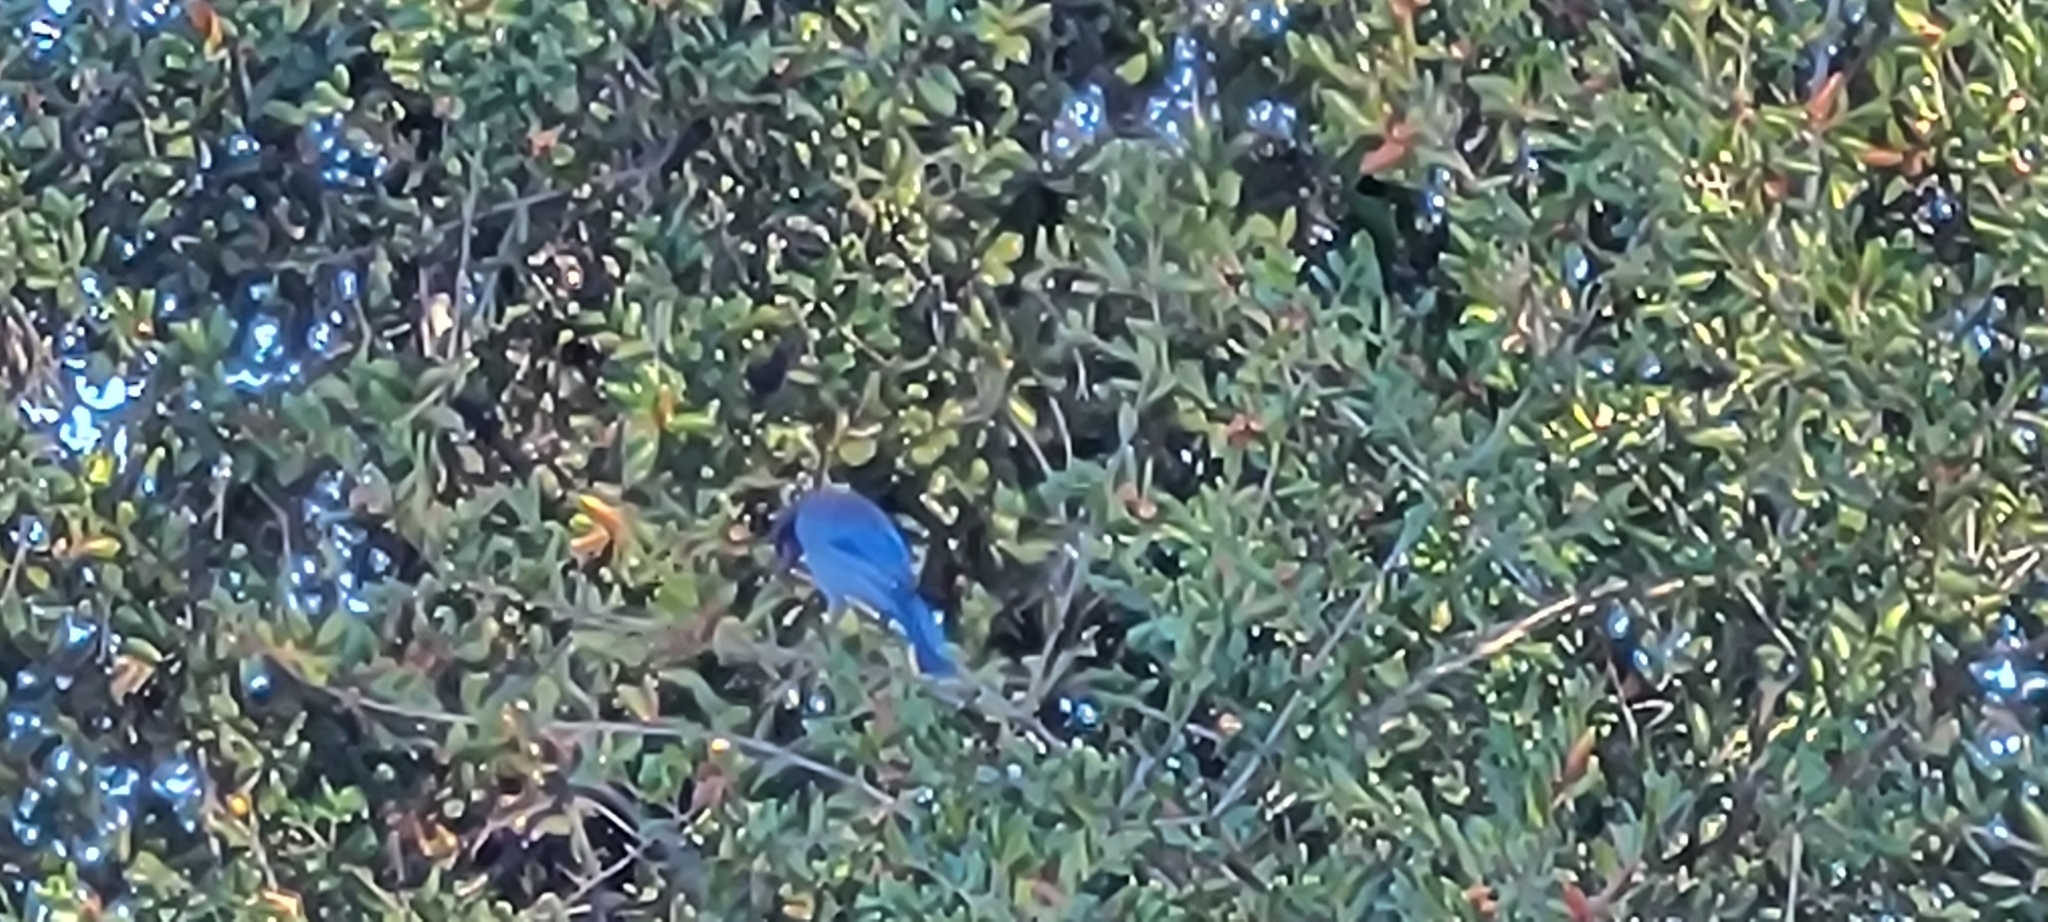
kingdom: Animalia
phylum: Chordata
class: Aves
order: Passeriformes
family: Corvidae
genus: Cyanocitta
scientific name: Cyanocitta stelleri
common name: Steller's jay
